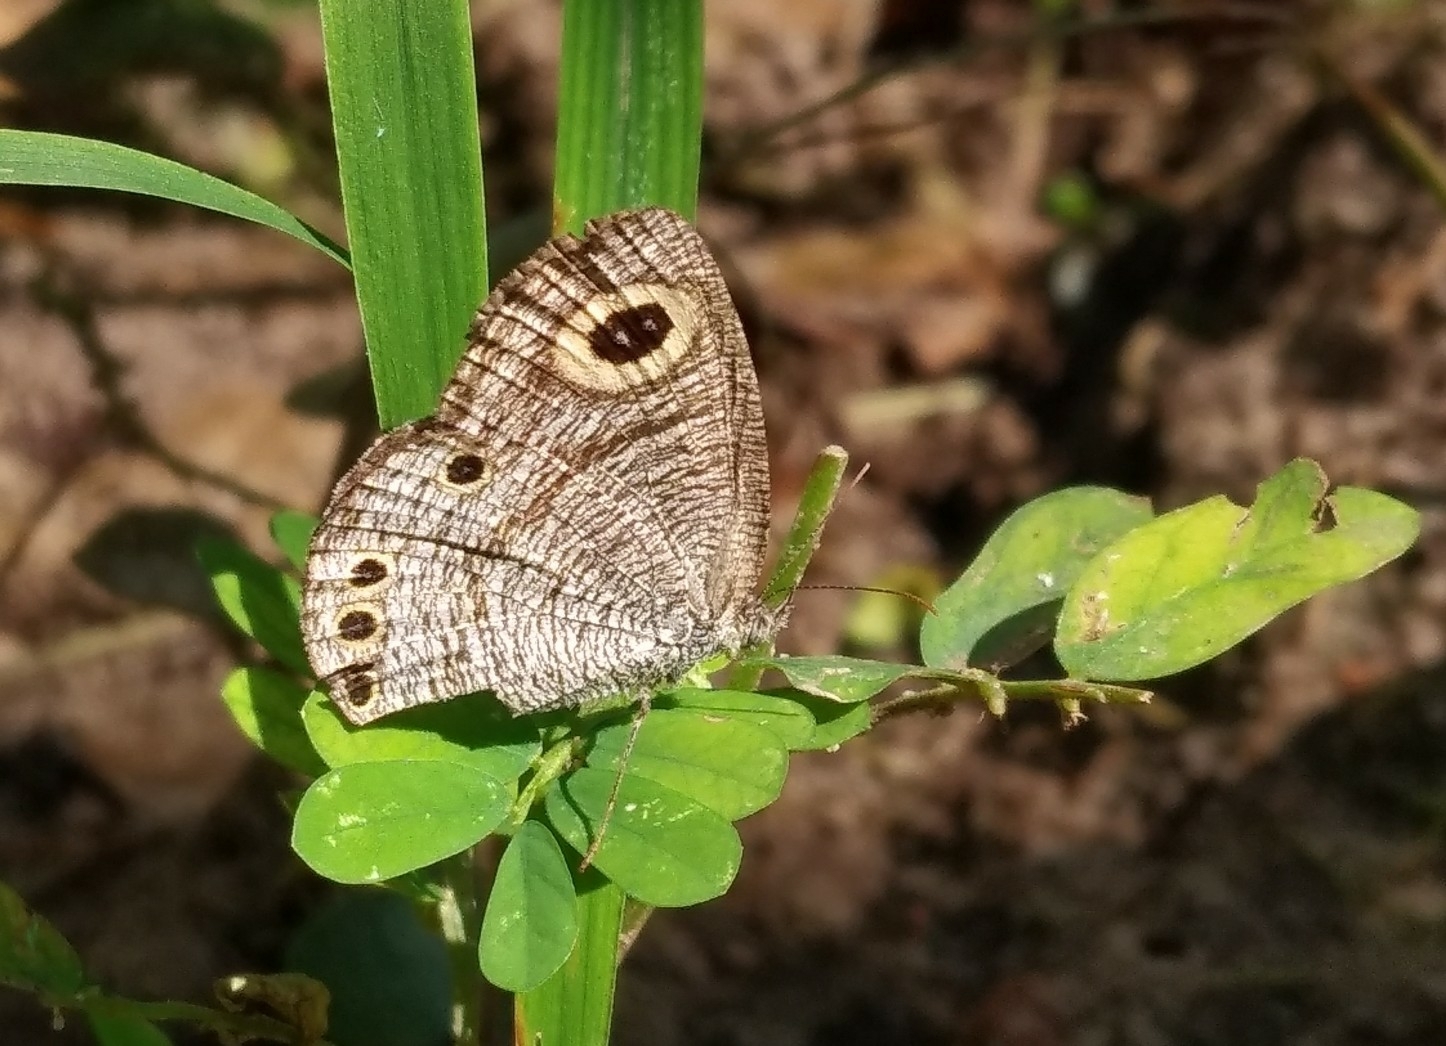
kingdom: Animalia
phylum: Arthropoda
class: Insecta
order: Lepidoptera
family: Nymphalidae
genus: Ypthima
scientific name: Ypthima huebneri
